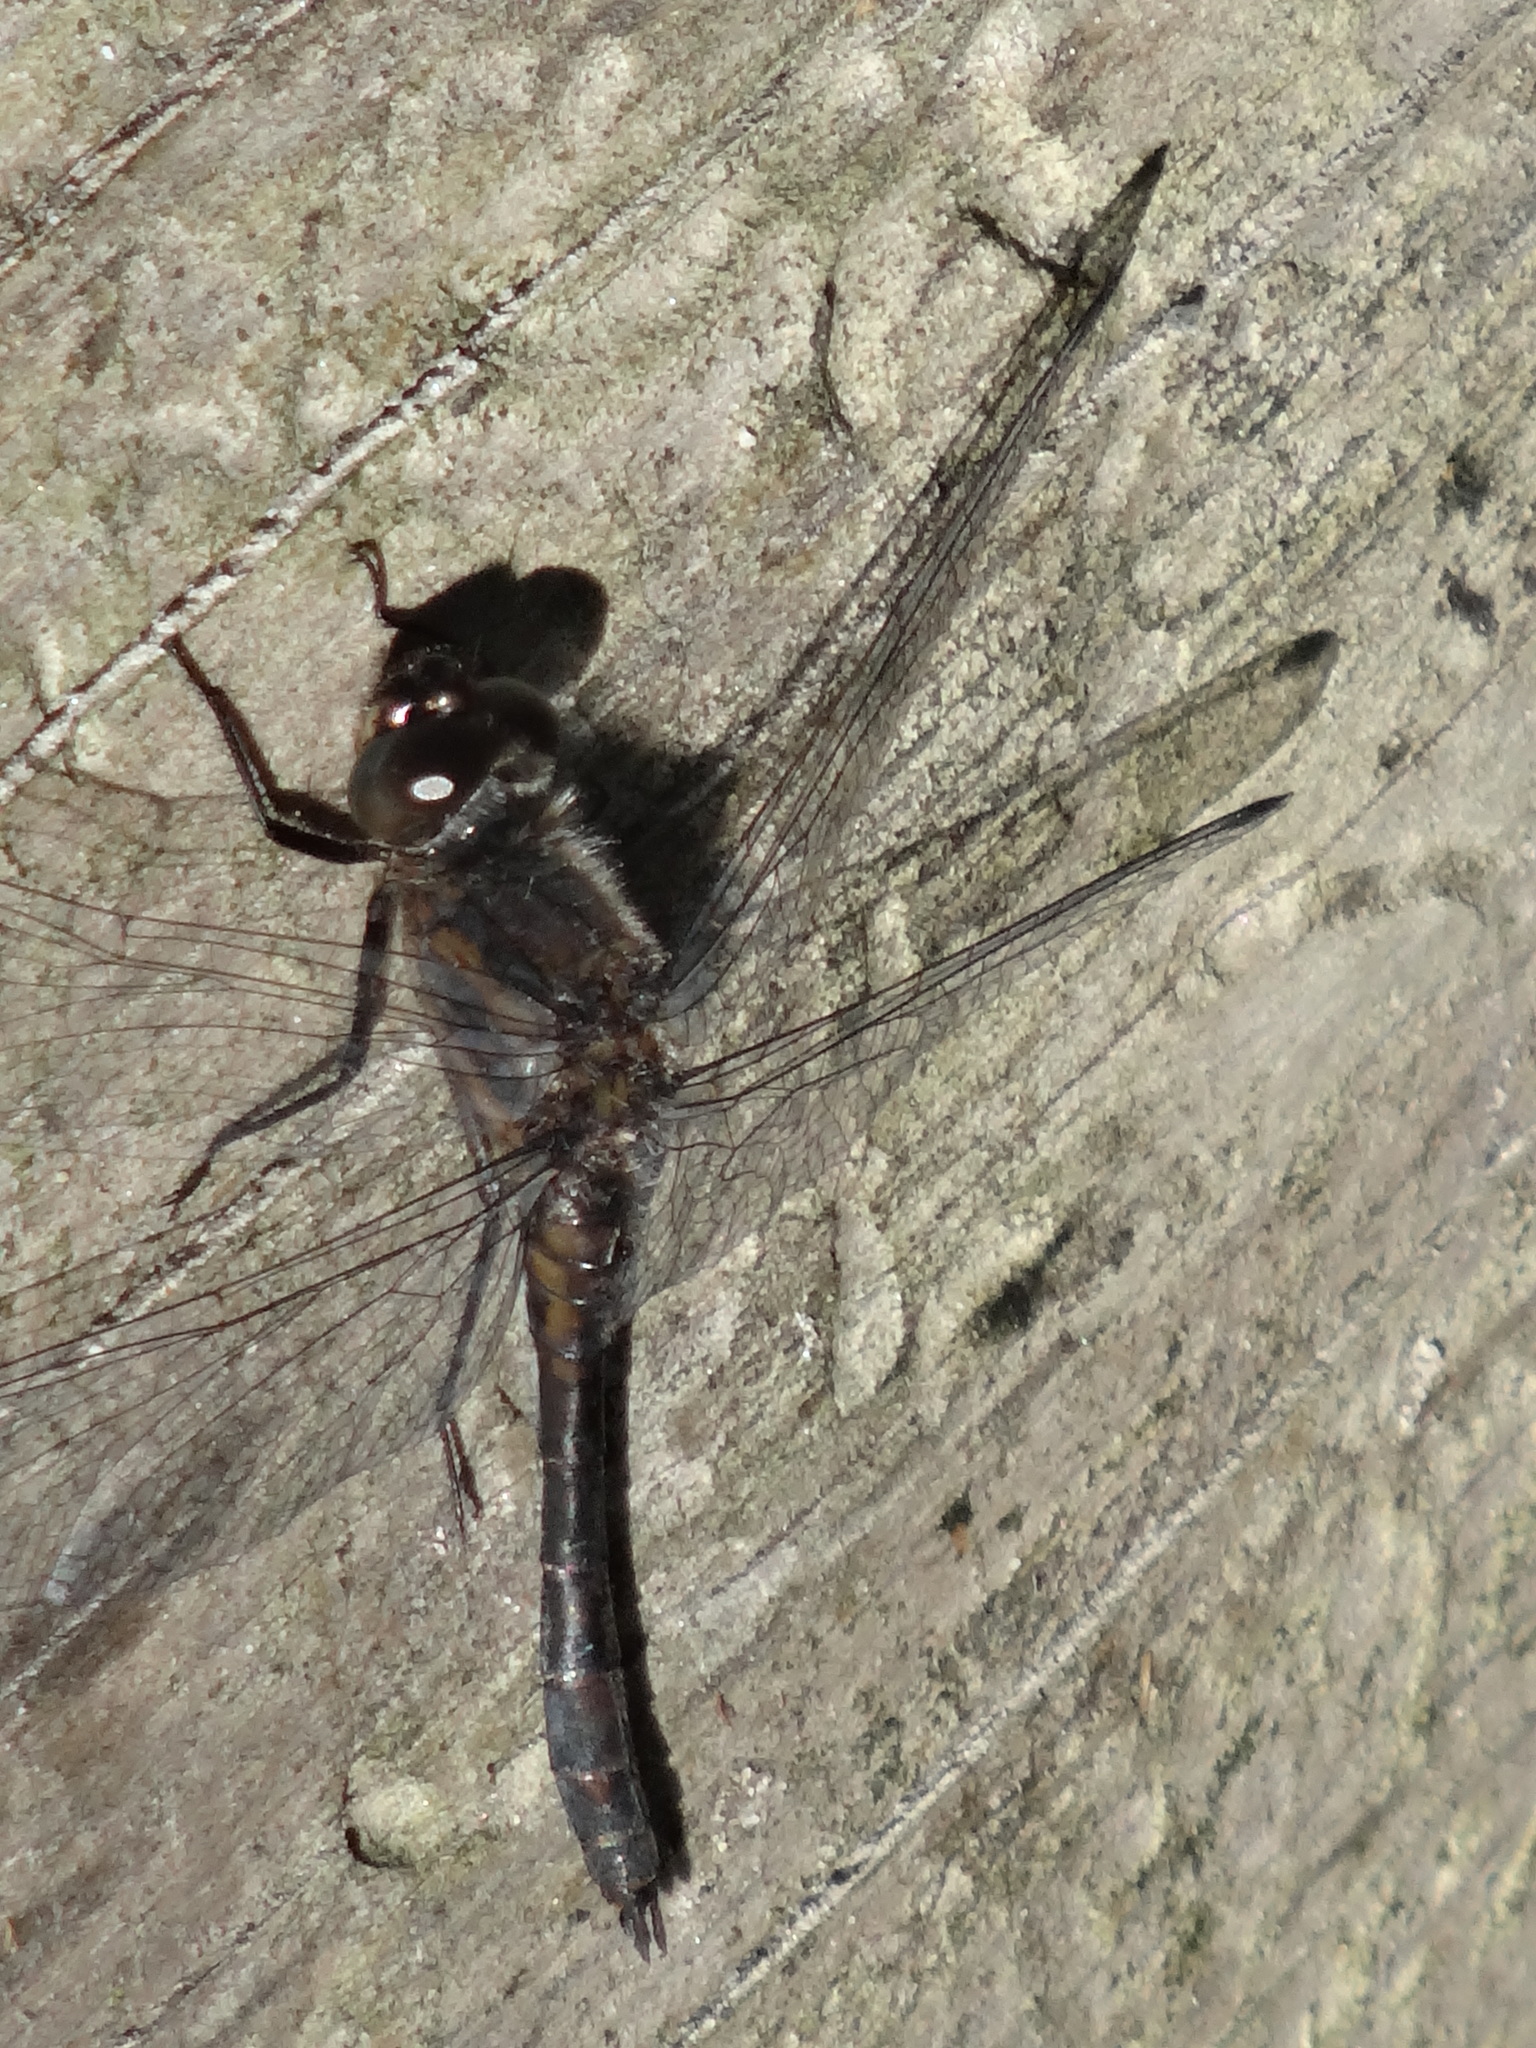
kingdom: Animalia
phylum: Arthropoda
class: Insecta
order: Odonata
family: Libellulidae
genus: Sympetrum
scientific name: Sympetrum danae
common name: Black darter
